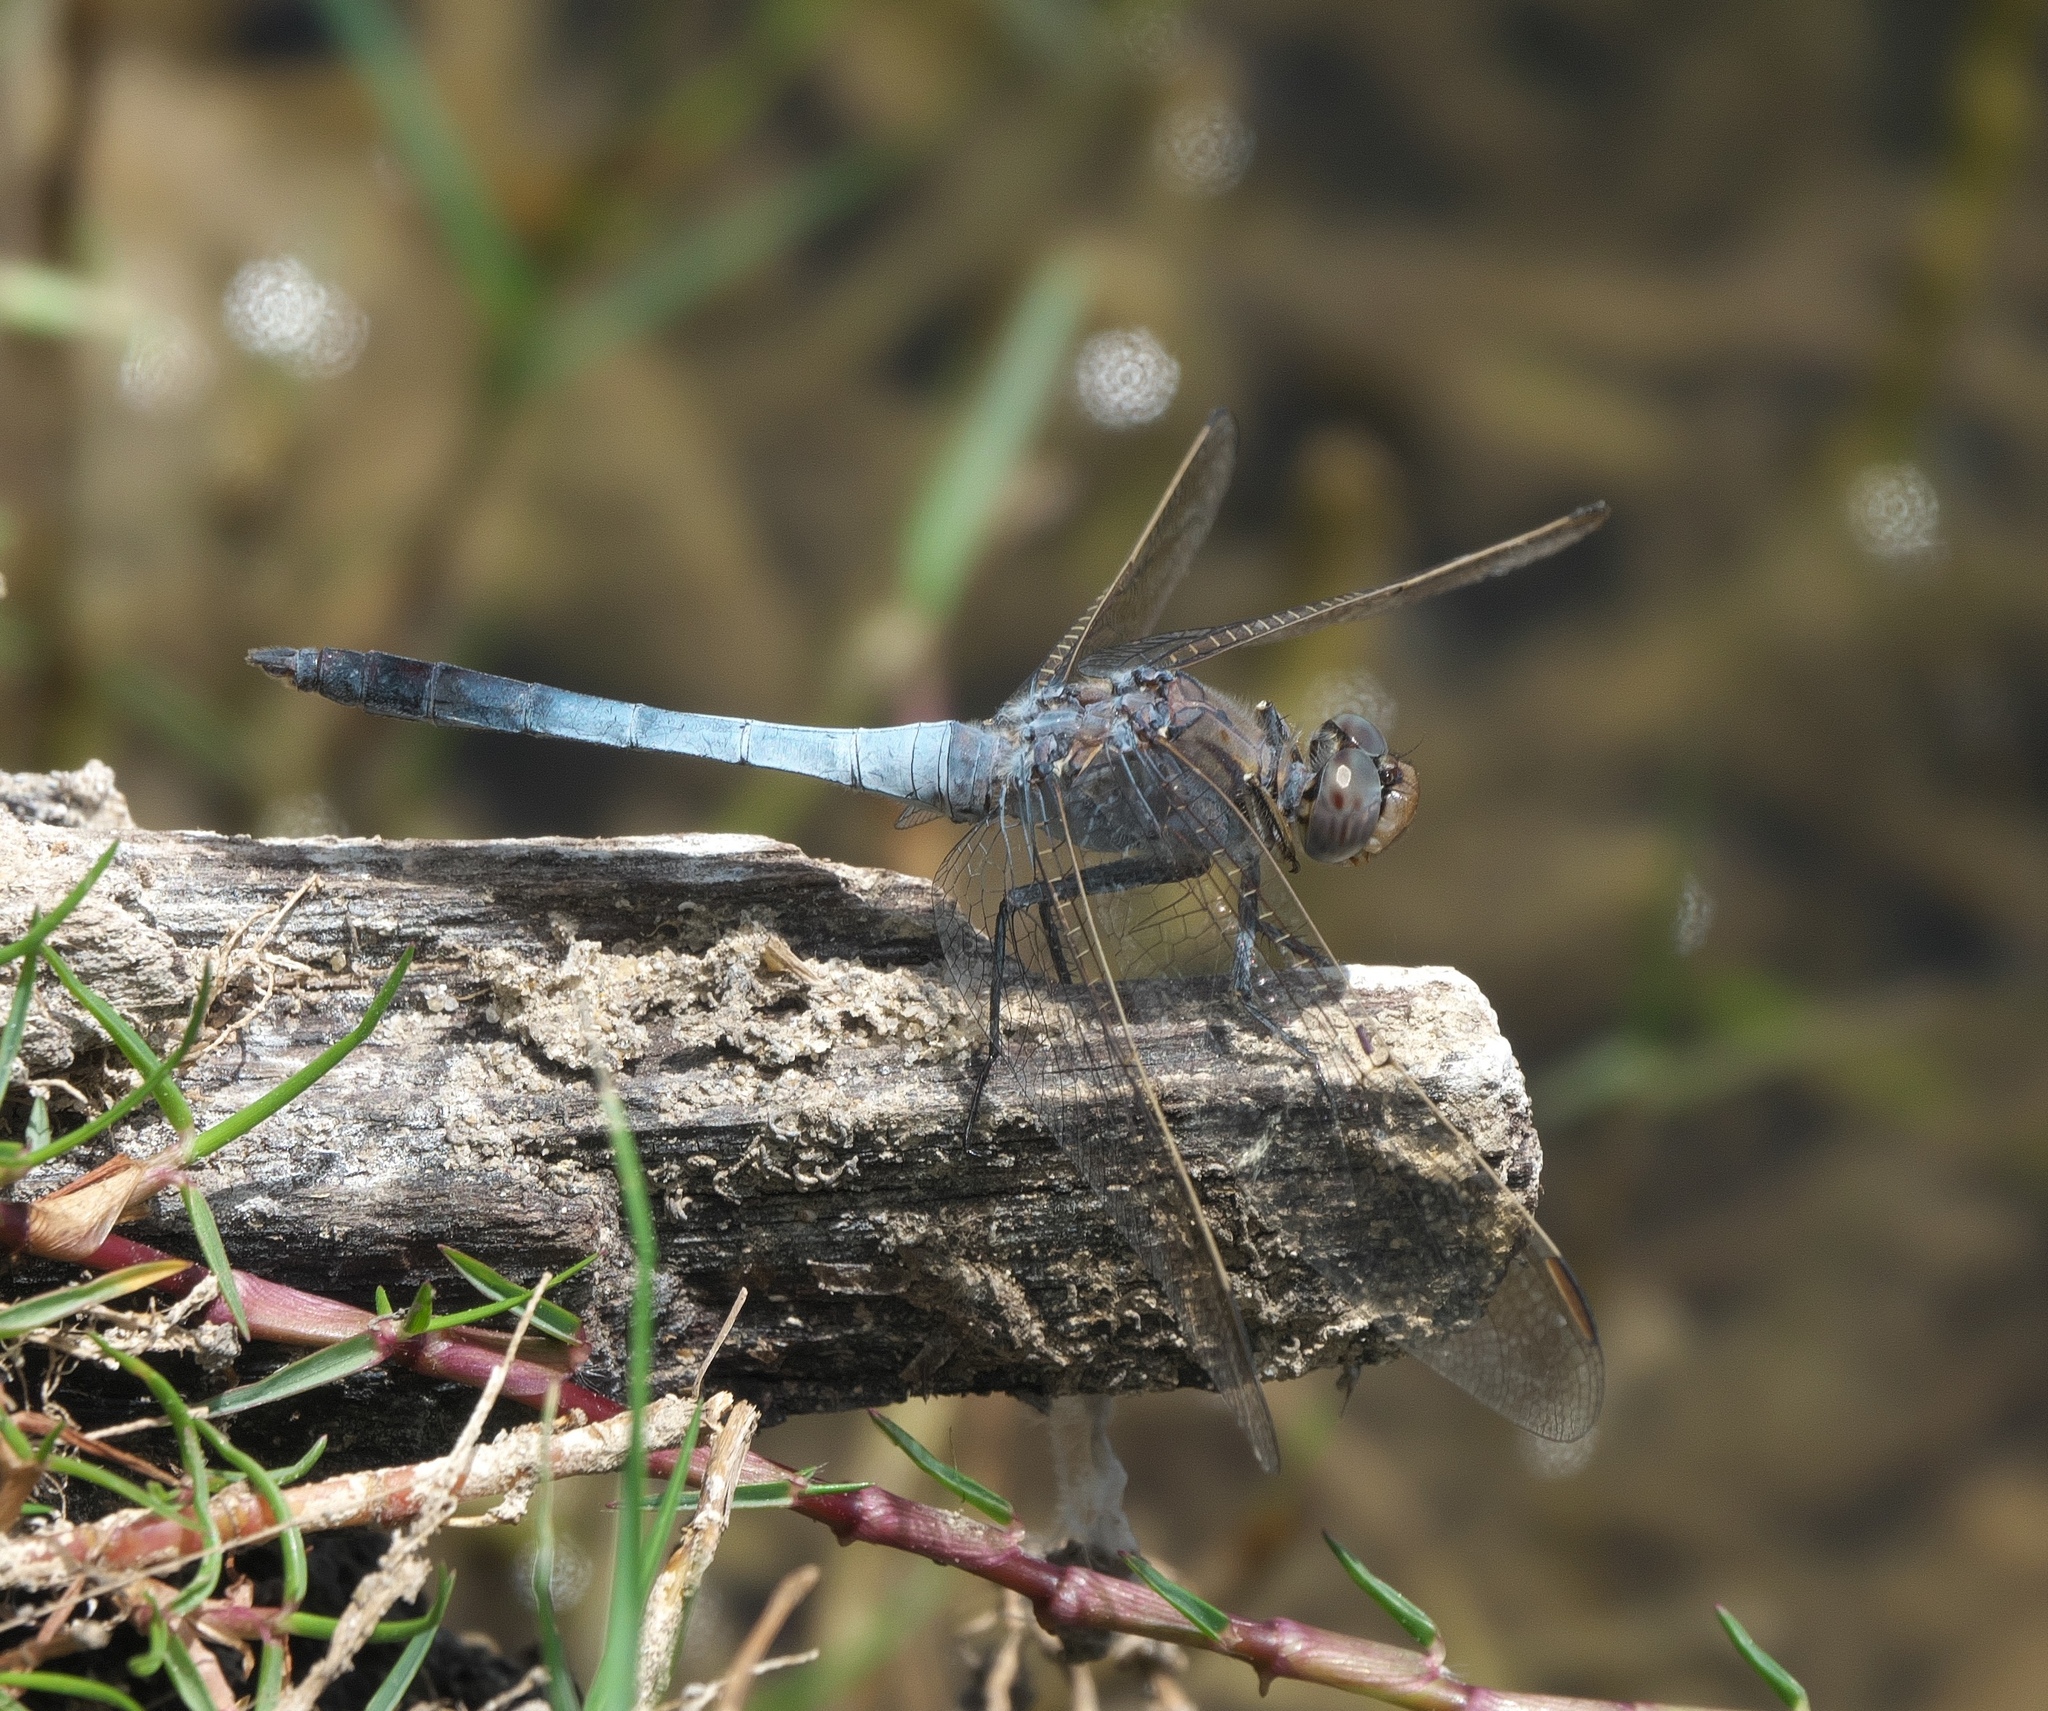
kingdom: Animalia
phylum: Arthropoda
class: Insecta
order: Odonata
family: Libellulidae
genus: Orthetrum
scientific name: Orthetrum caledonicum
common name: Blue skimmer
